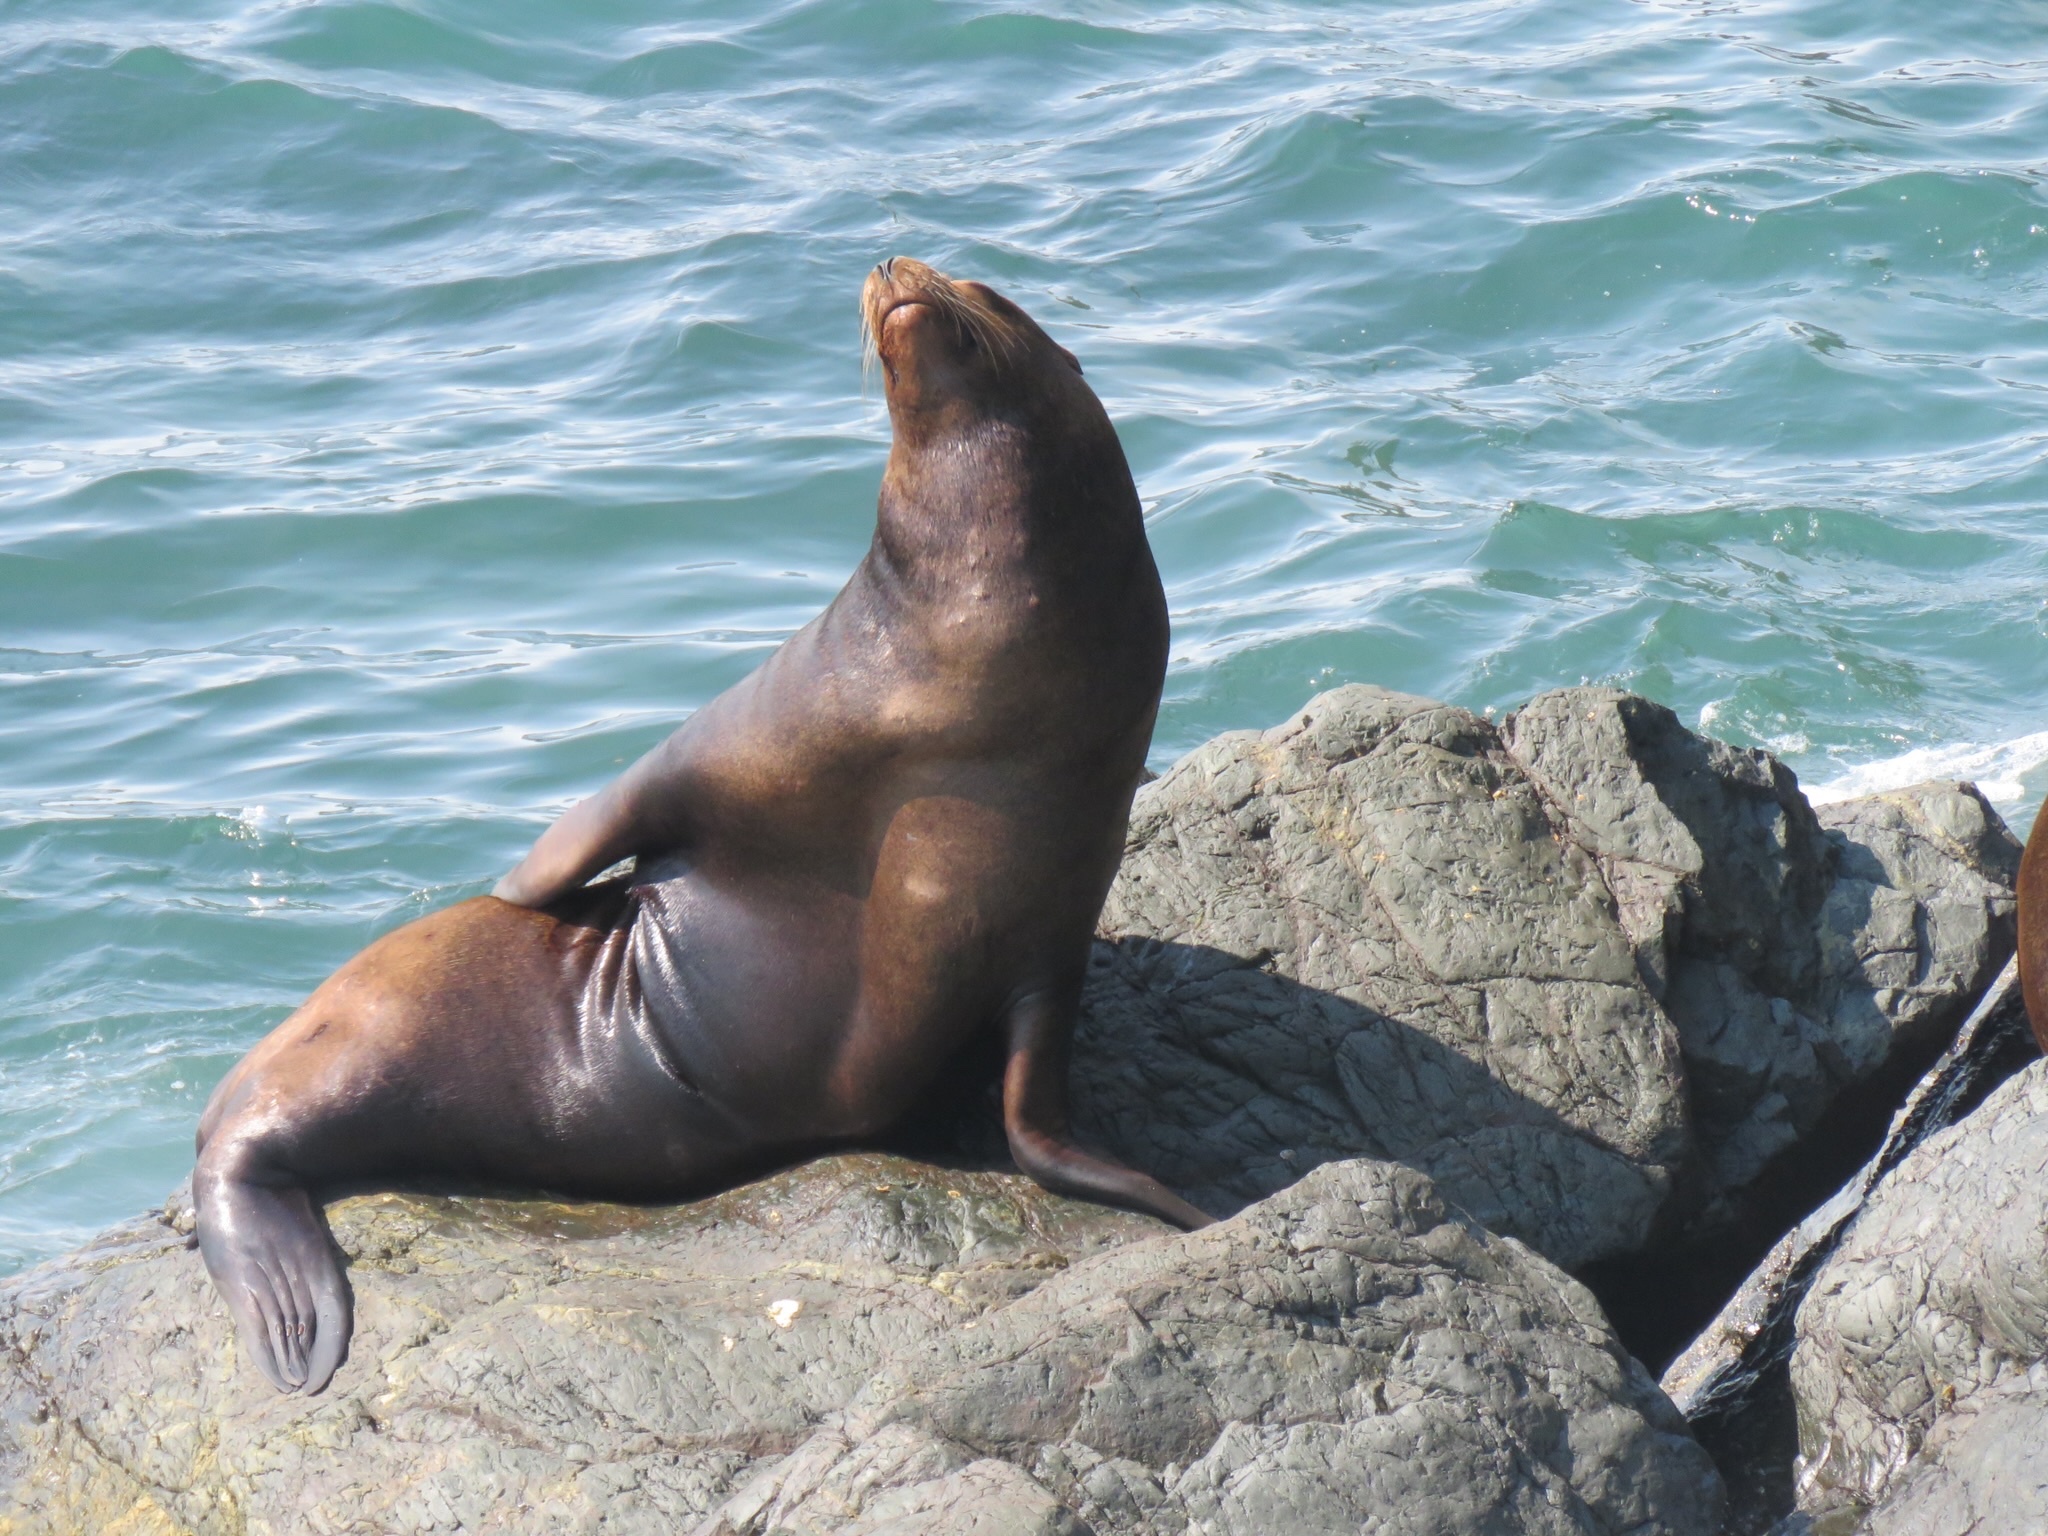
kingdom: Animalia
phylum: Chordata
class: Mammalia
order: Carnivora
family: Otariidae
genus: Zalophus
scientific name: Zalophus californianus
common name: California sea lion
